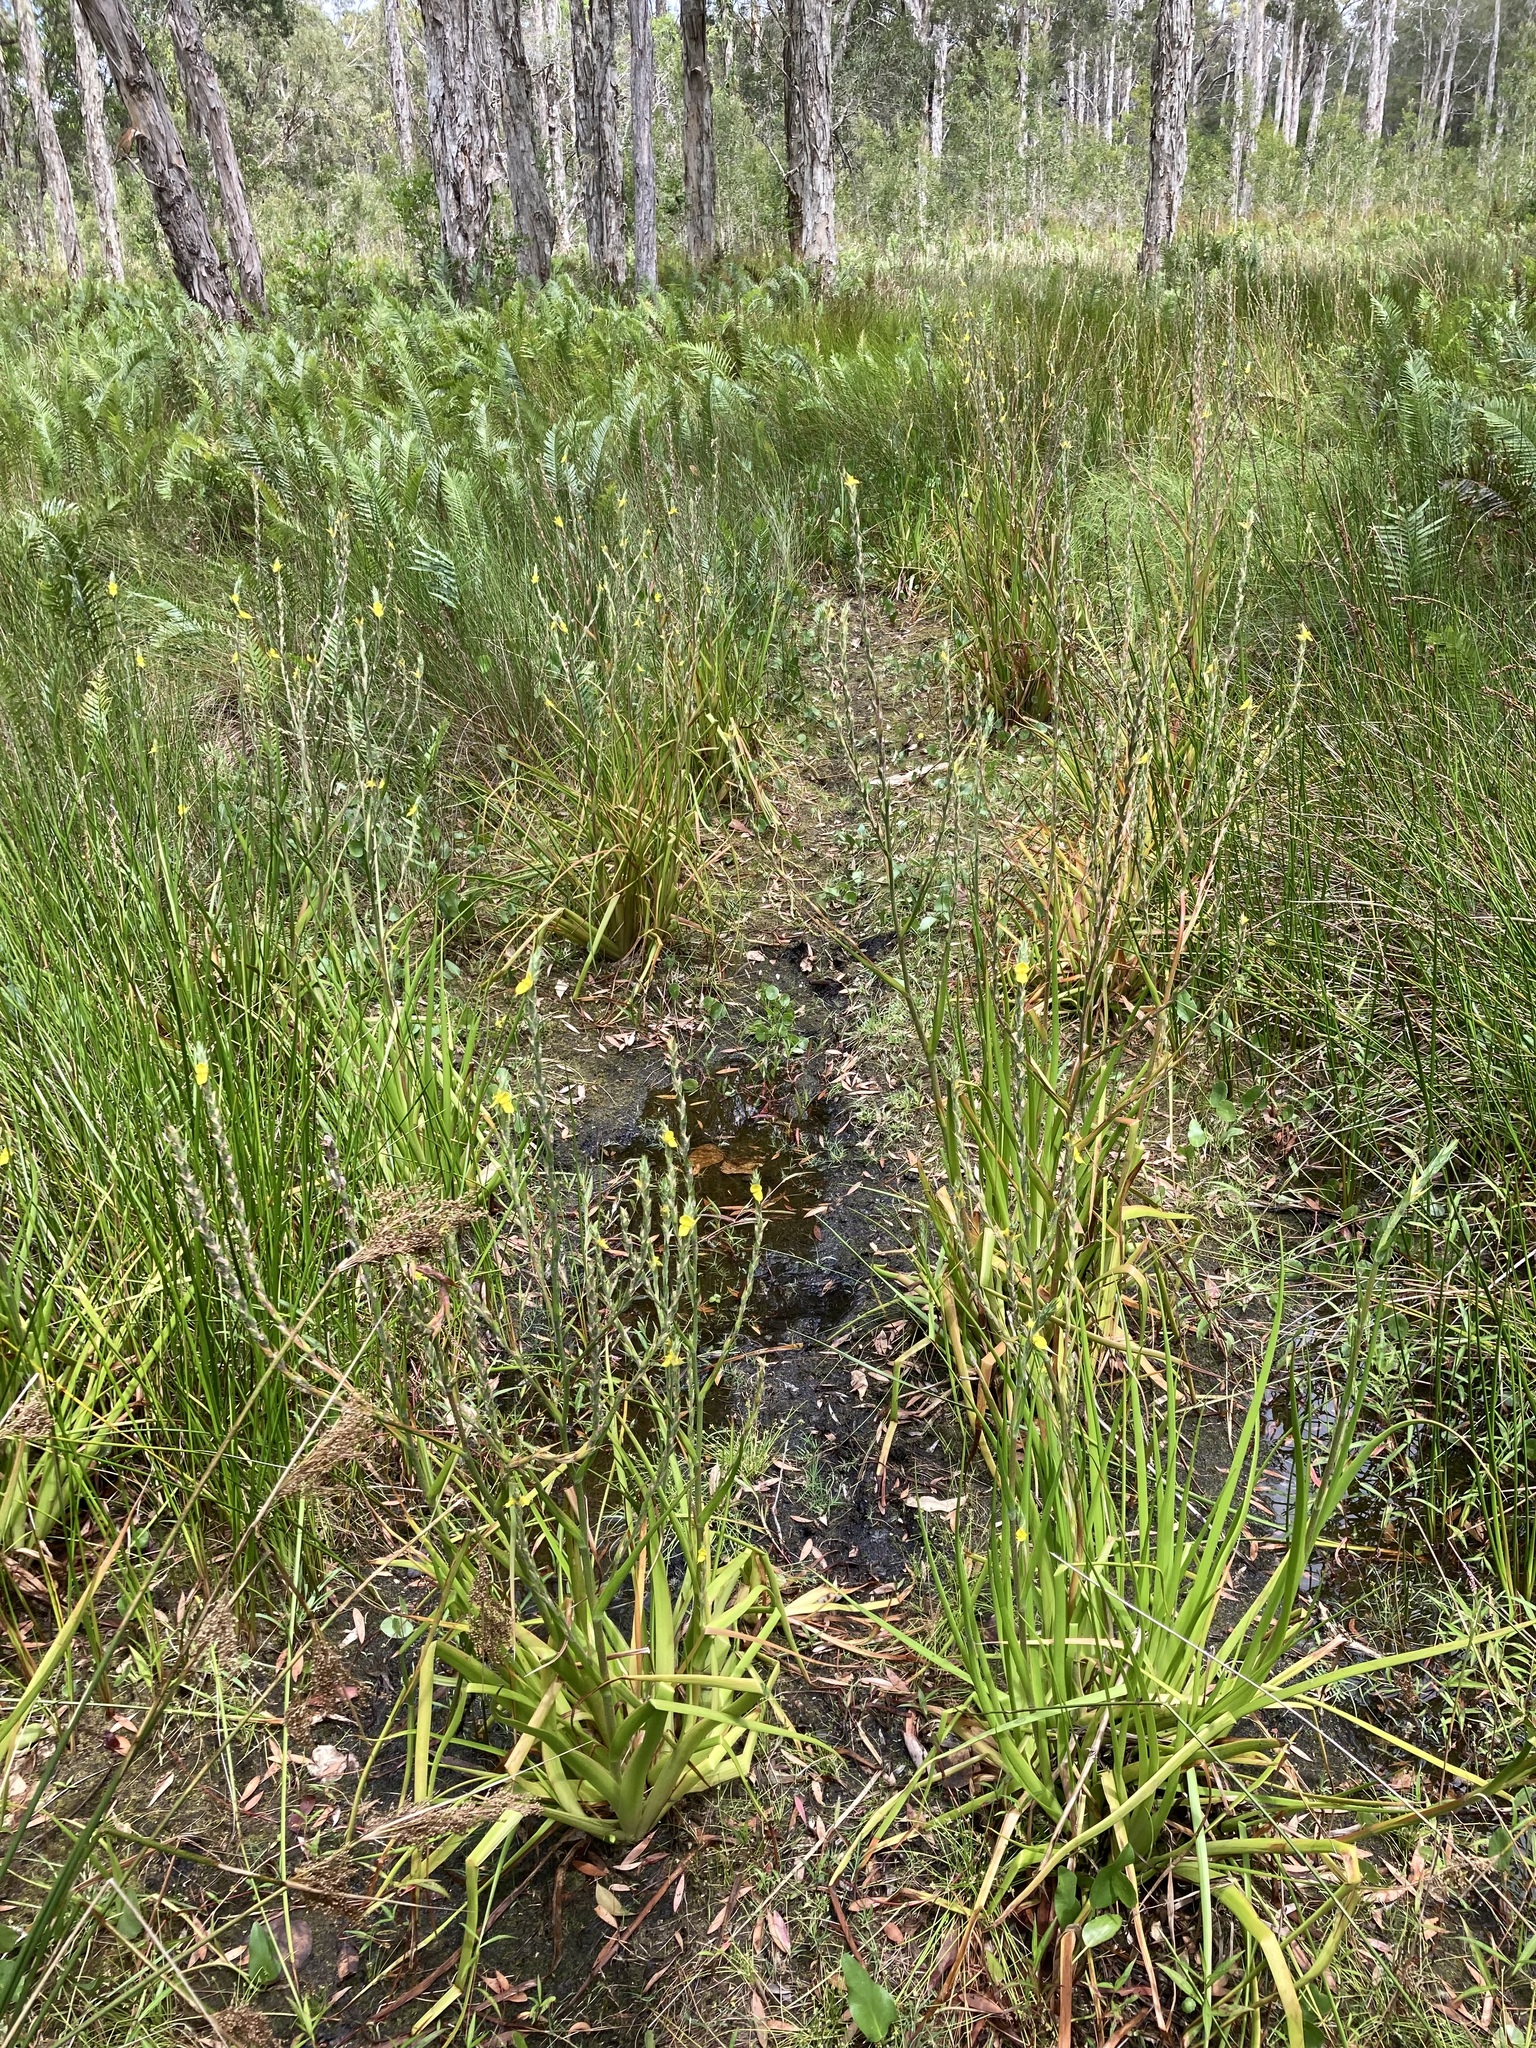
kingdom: Plantae
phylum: Tracheophyta
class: Liliopsida
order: Commelinales
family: Philydraceae
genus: Philydrum
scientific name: Philydrum lanuginosum
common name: Woolly frog's mouth
